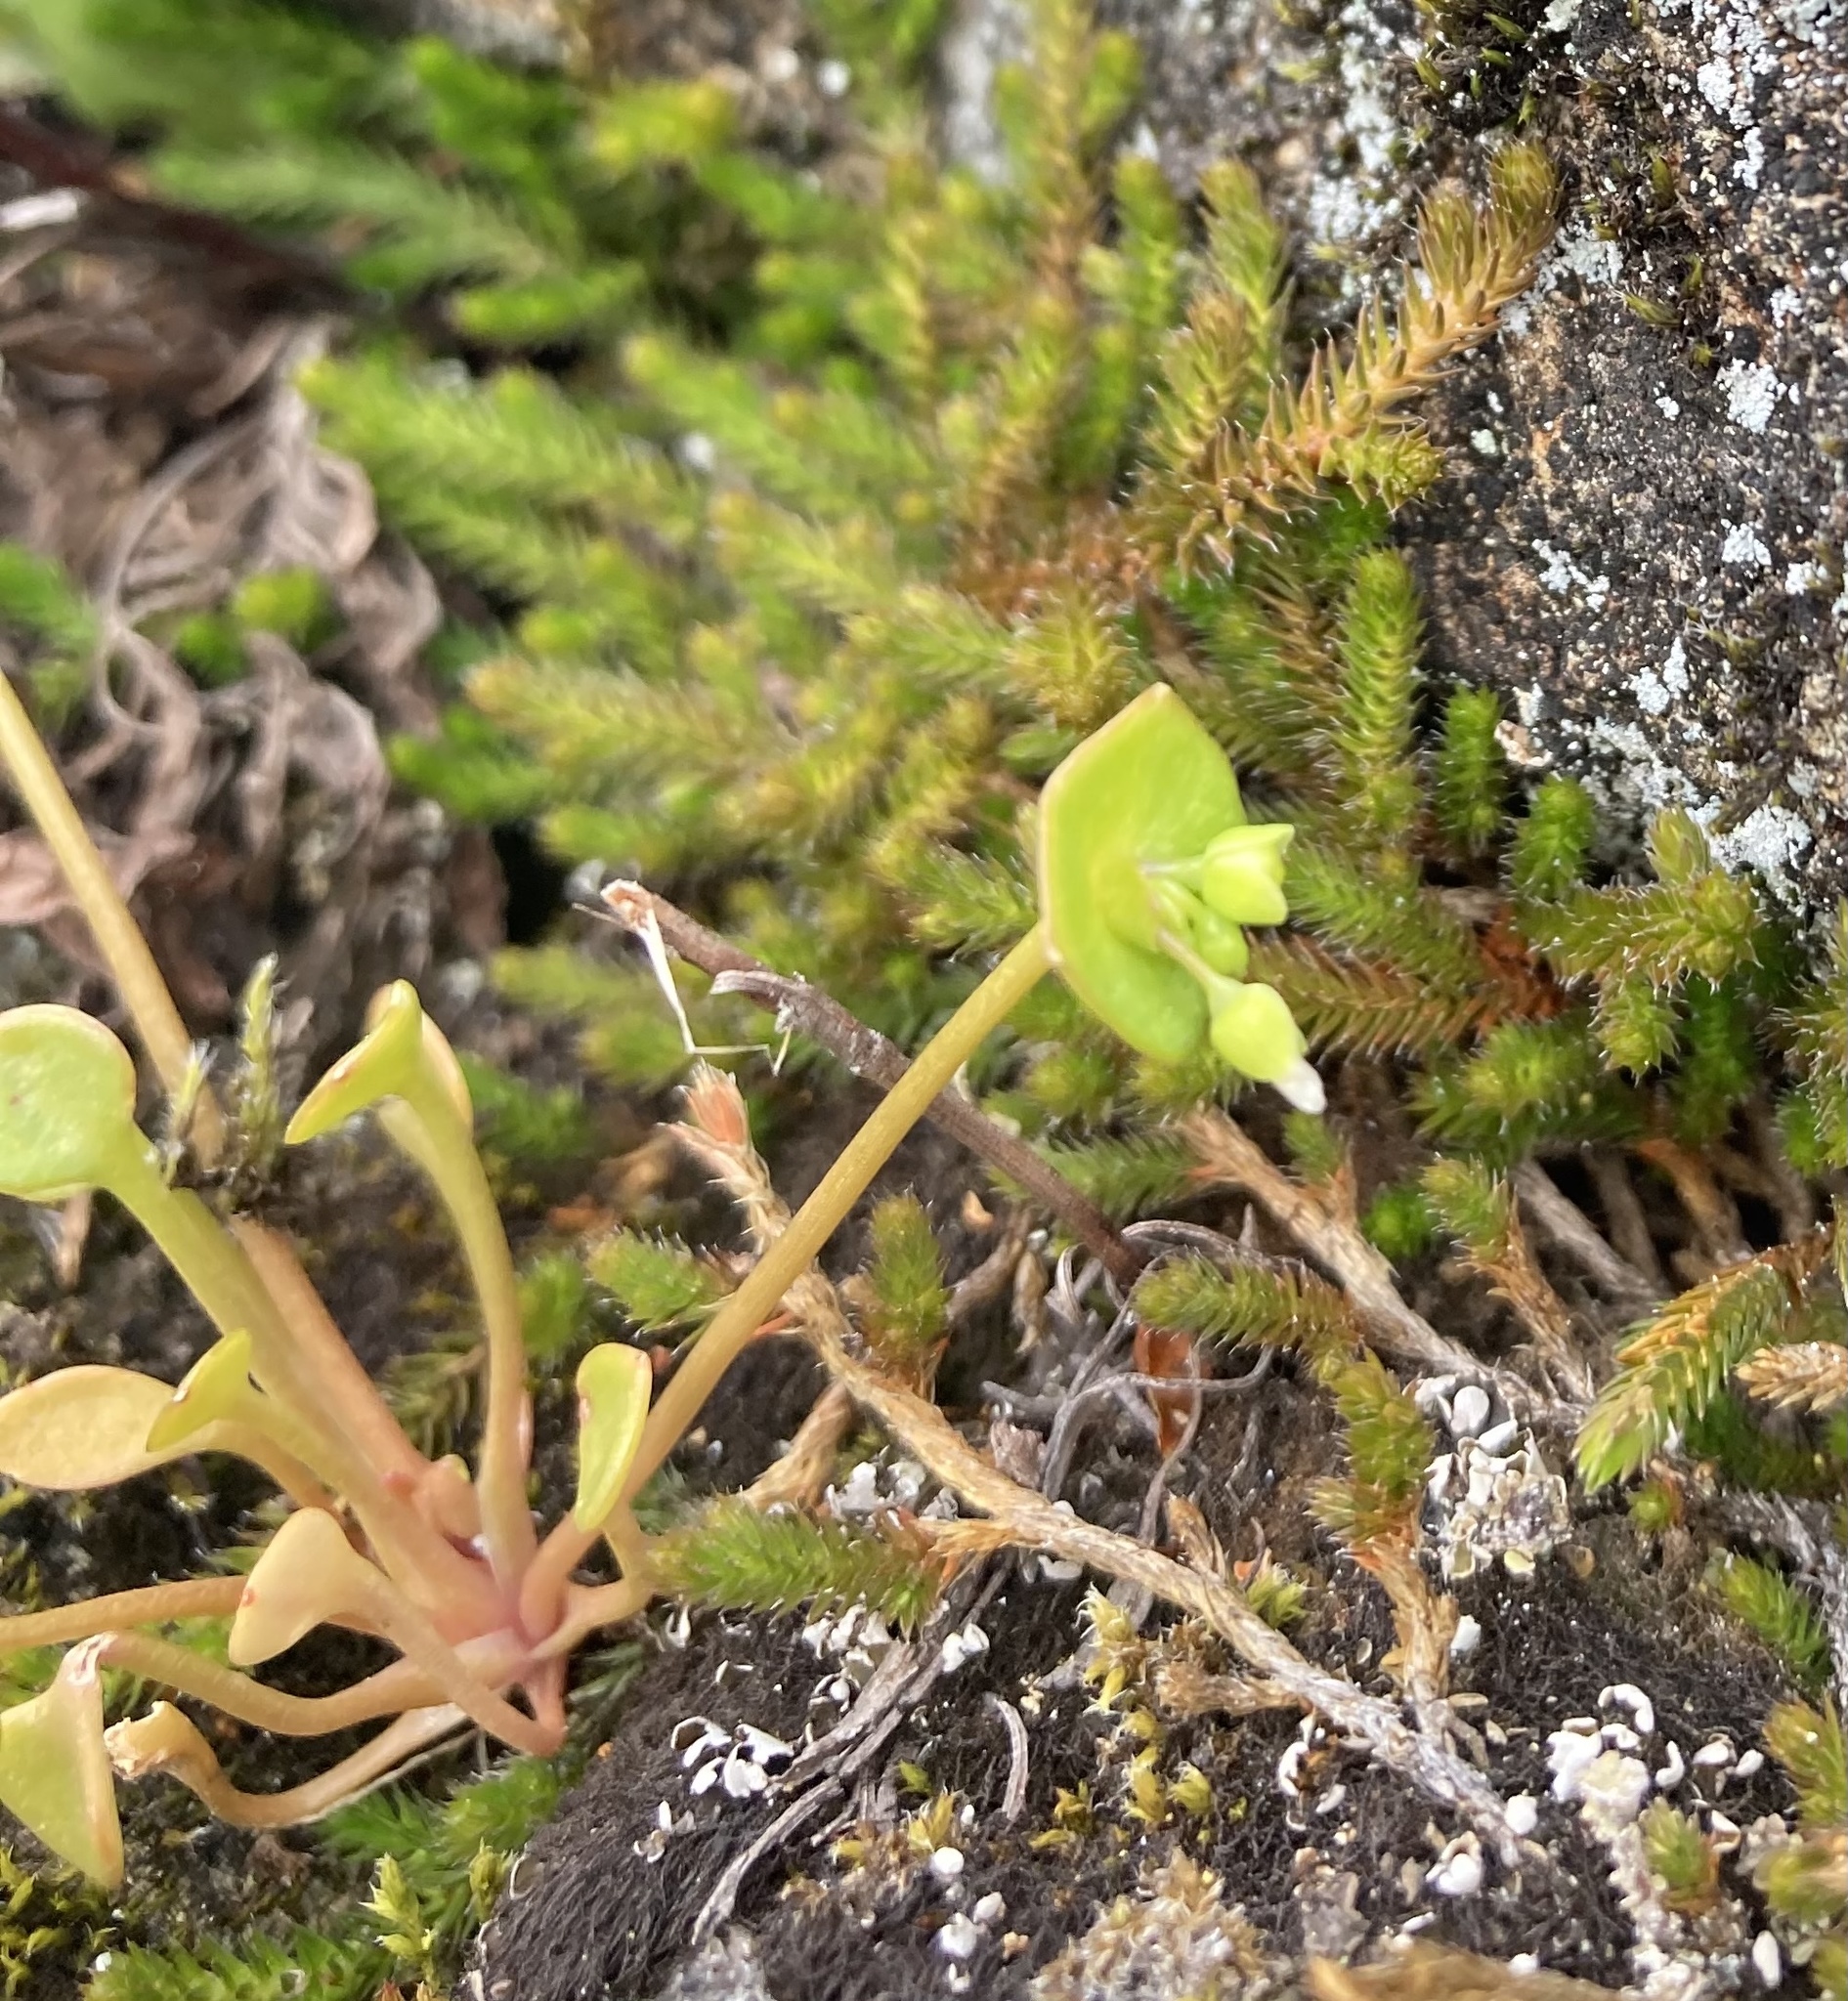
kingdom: Plantae
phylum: Tracheophyta
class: Magnoliopsida
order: Caryophyllales
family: Montiaceae
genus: Claytonia
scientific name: Claytonia rubra
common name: Erubescent miner's-lettuce
